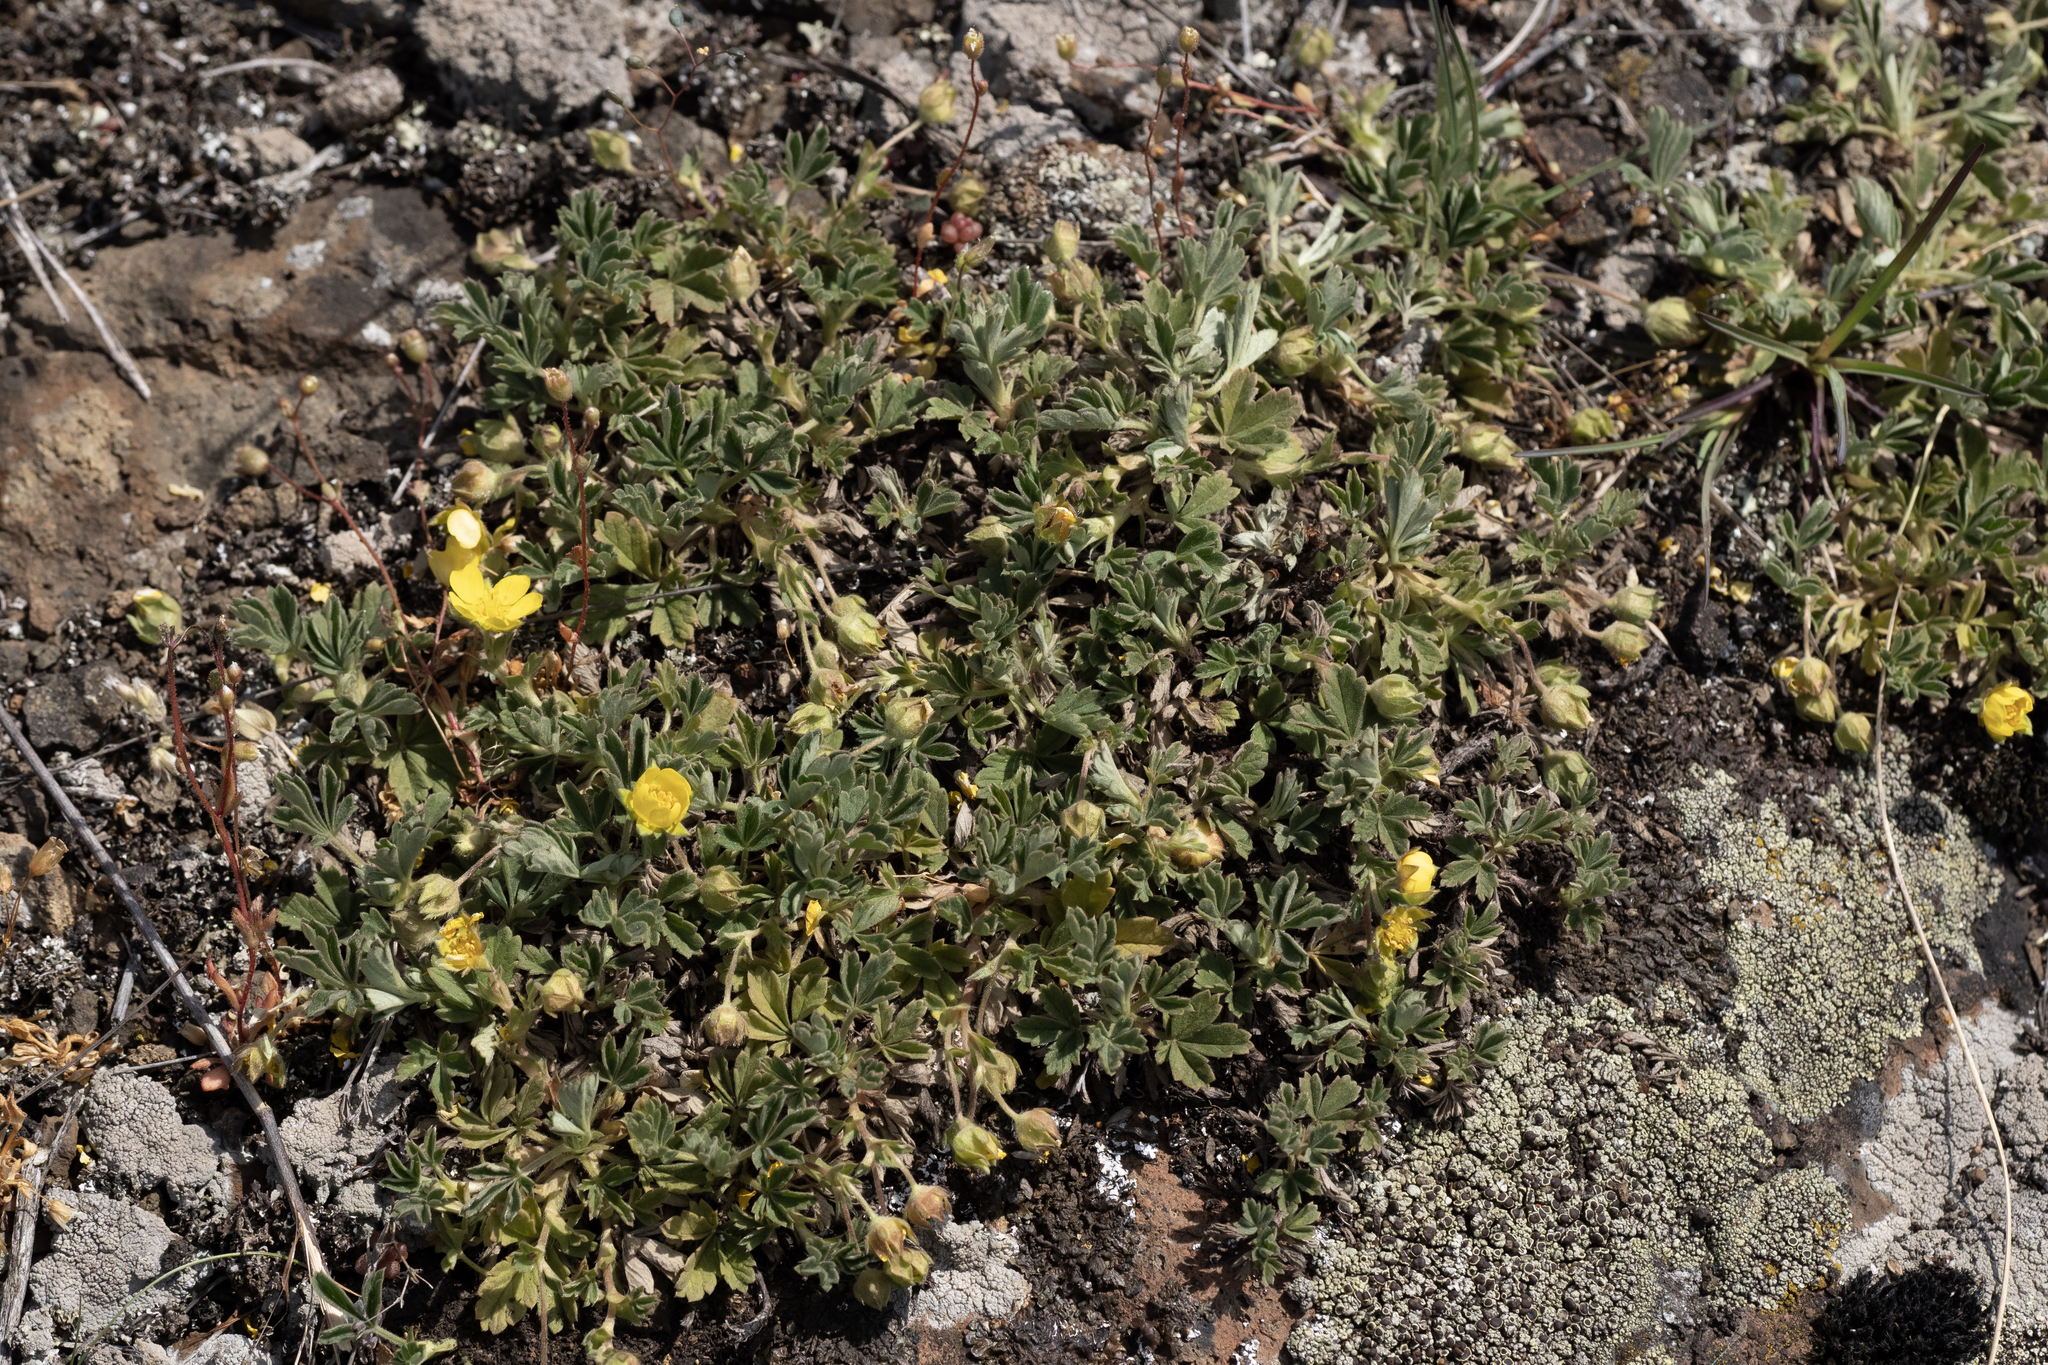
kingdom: Plantae
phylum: Tracheophyta
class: Magnoliopsida
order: Rosales
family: Rosaceae
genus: Potentilla
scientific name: Potentilla incana
